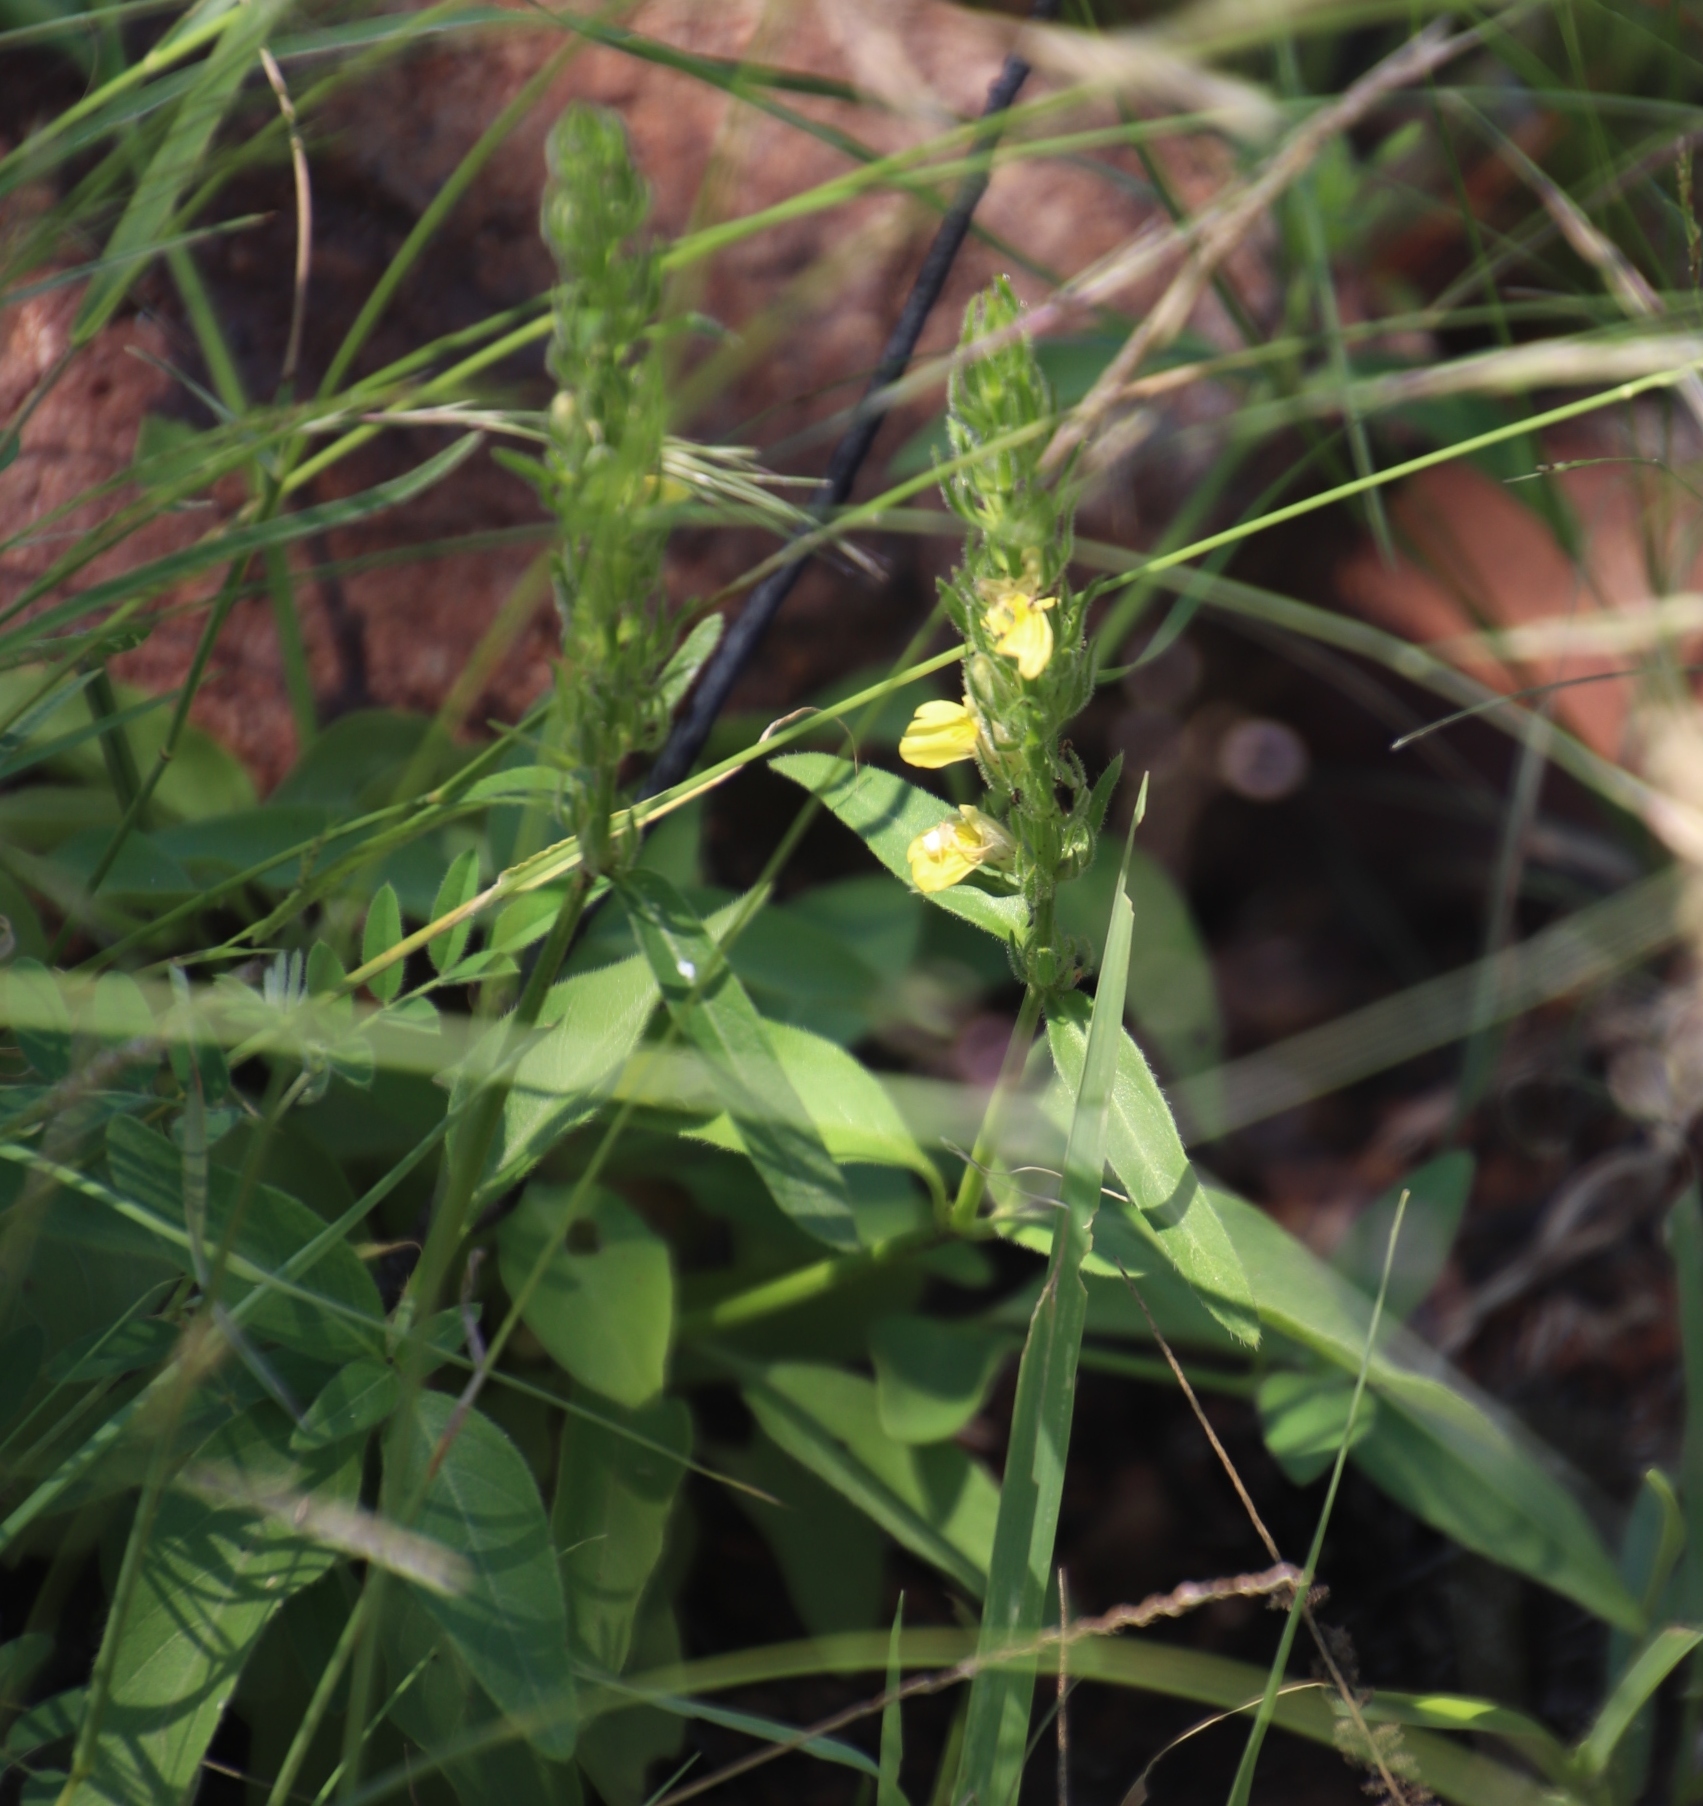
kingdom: Plantae
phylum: Tracheophyta
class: Magnoliopsida
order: Lamiales
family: Acanthaceae
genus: Justicia
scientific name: Justicia flava
